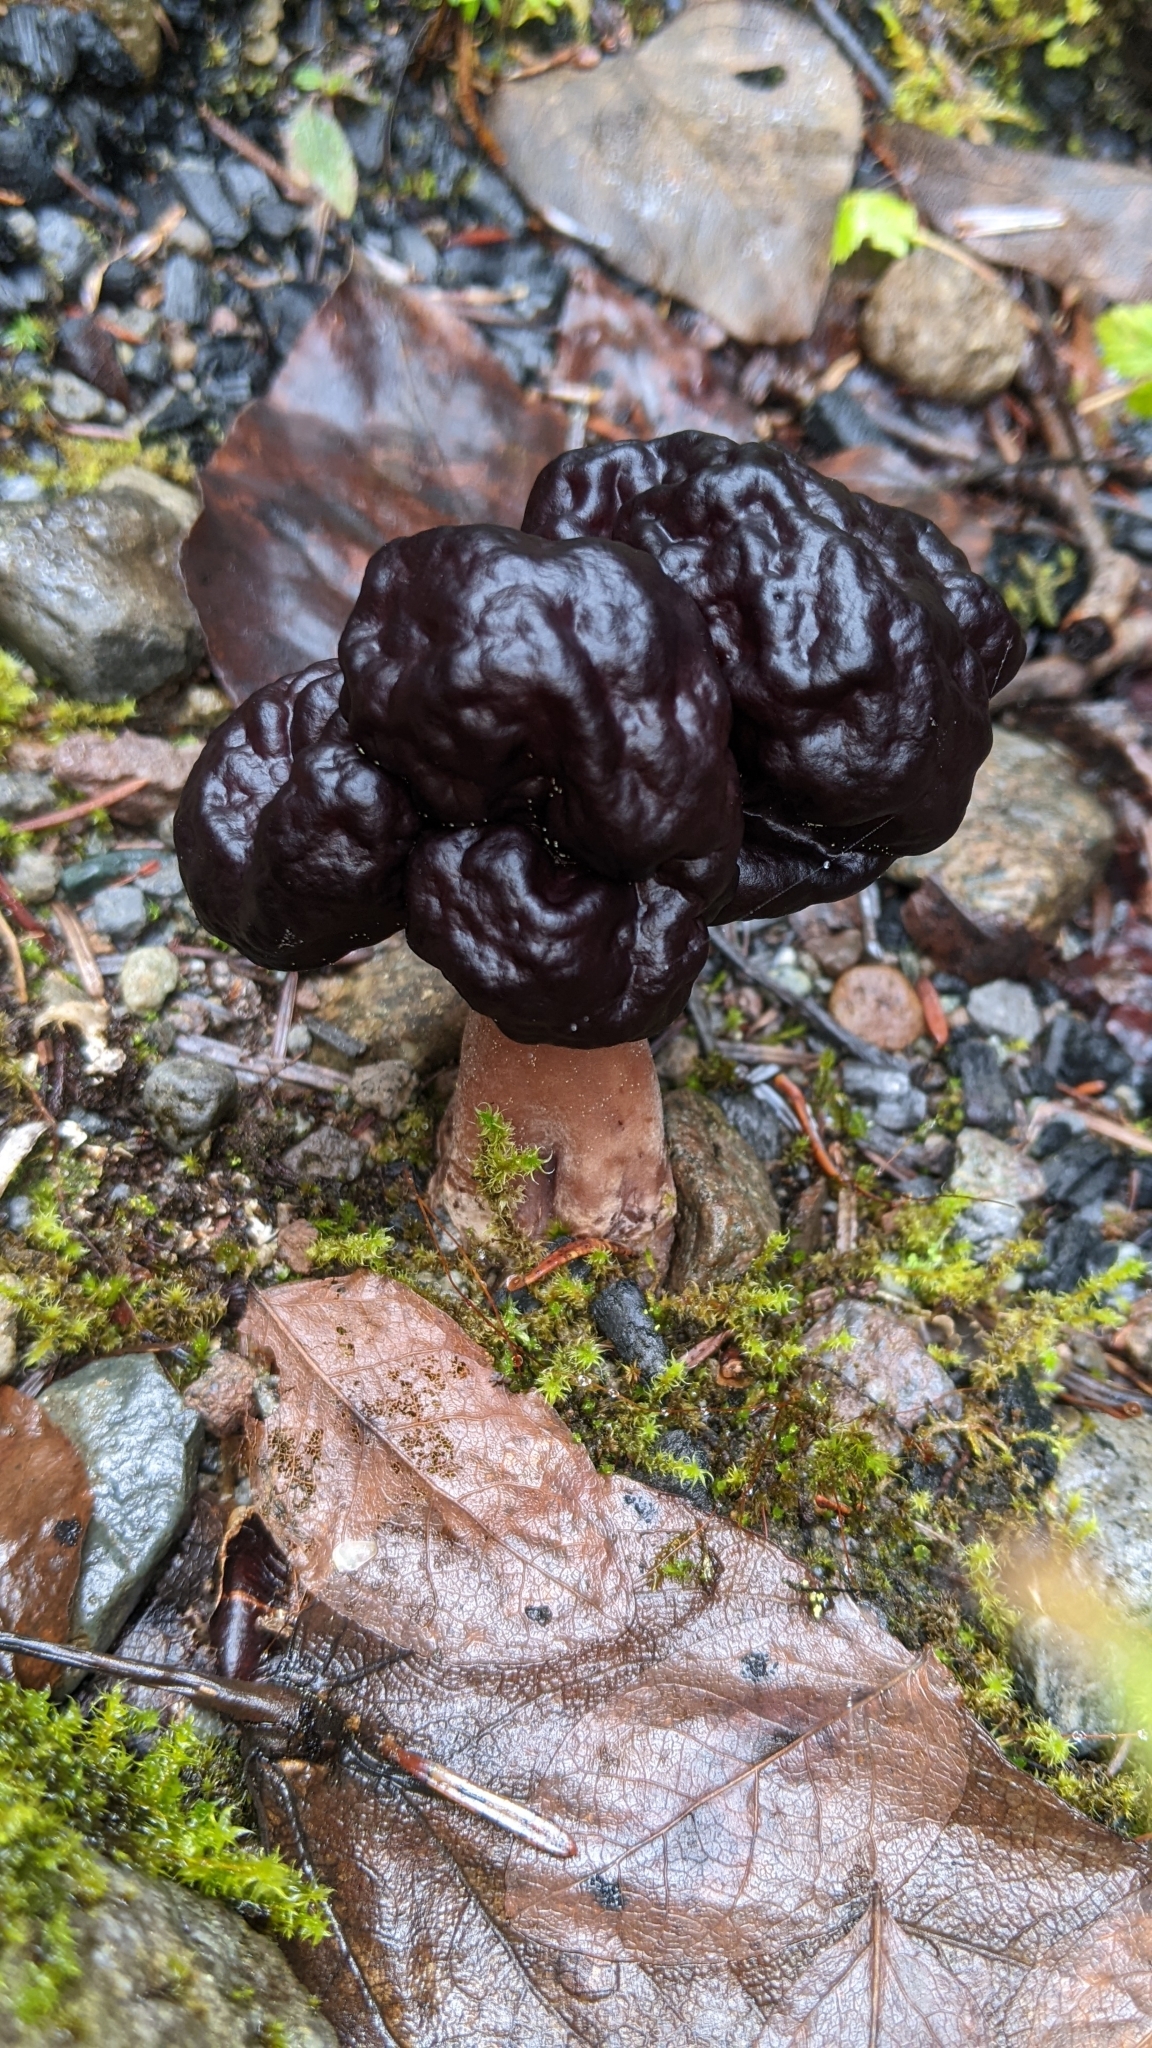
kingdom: Fungi
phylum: Ascomycota
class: Pezizomycetes
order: Pezizales
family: Discinaceae
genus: Gyromitra
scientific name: Gyromitra esculenta
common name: False morel
